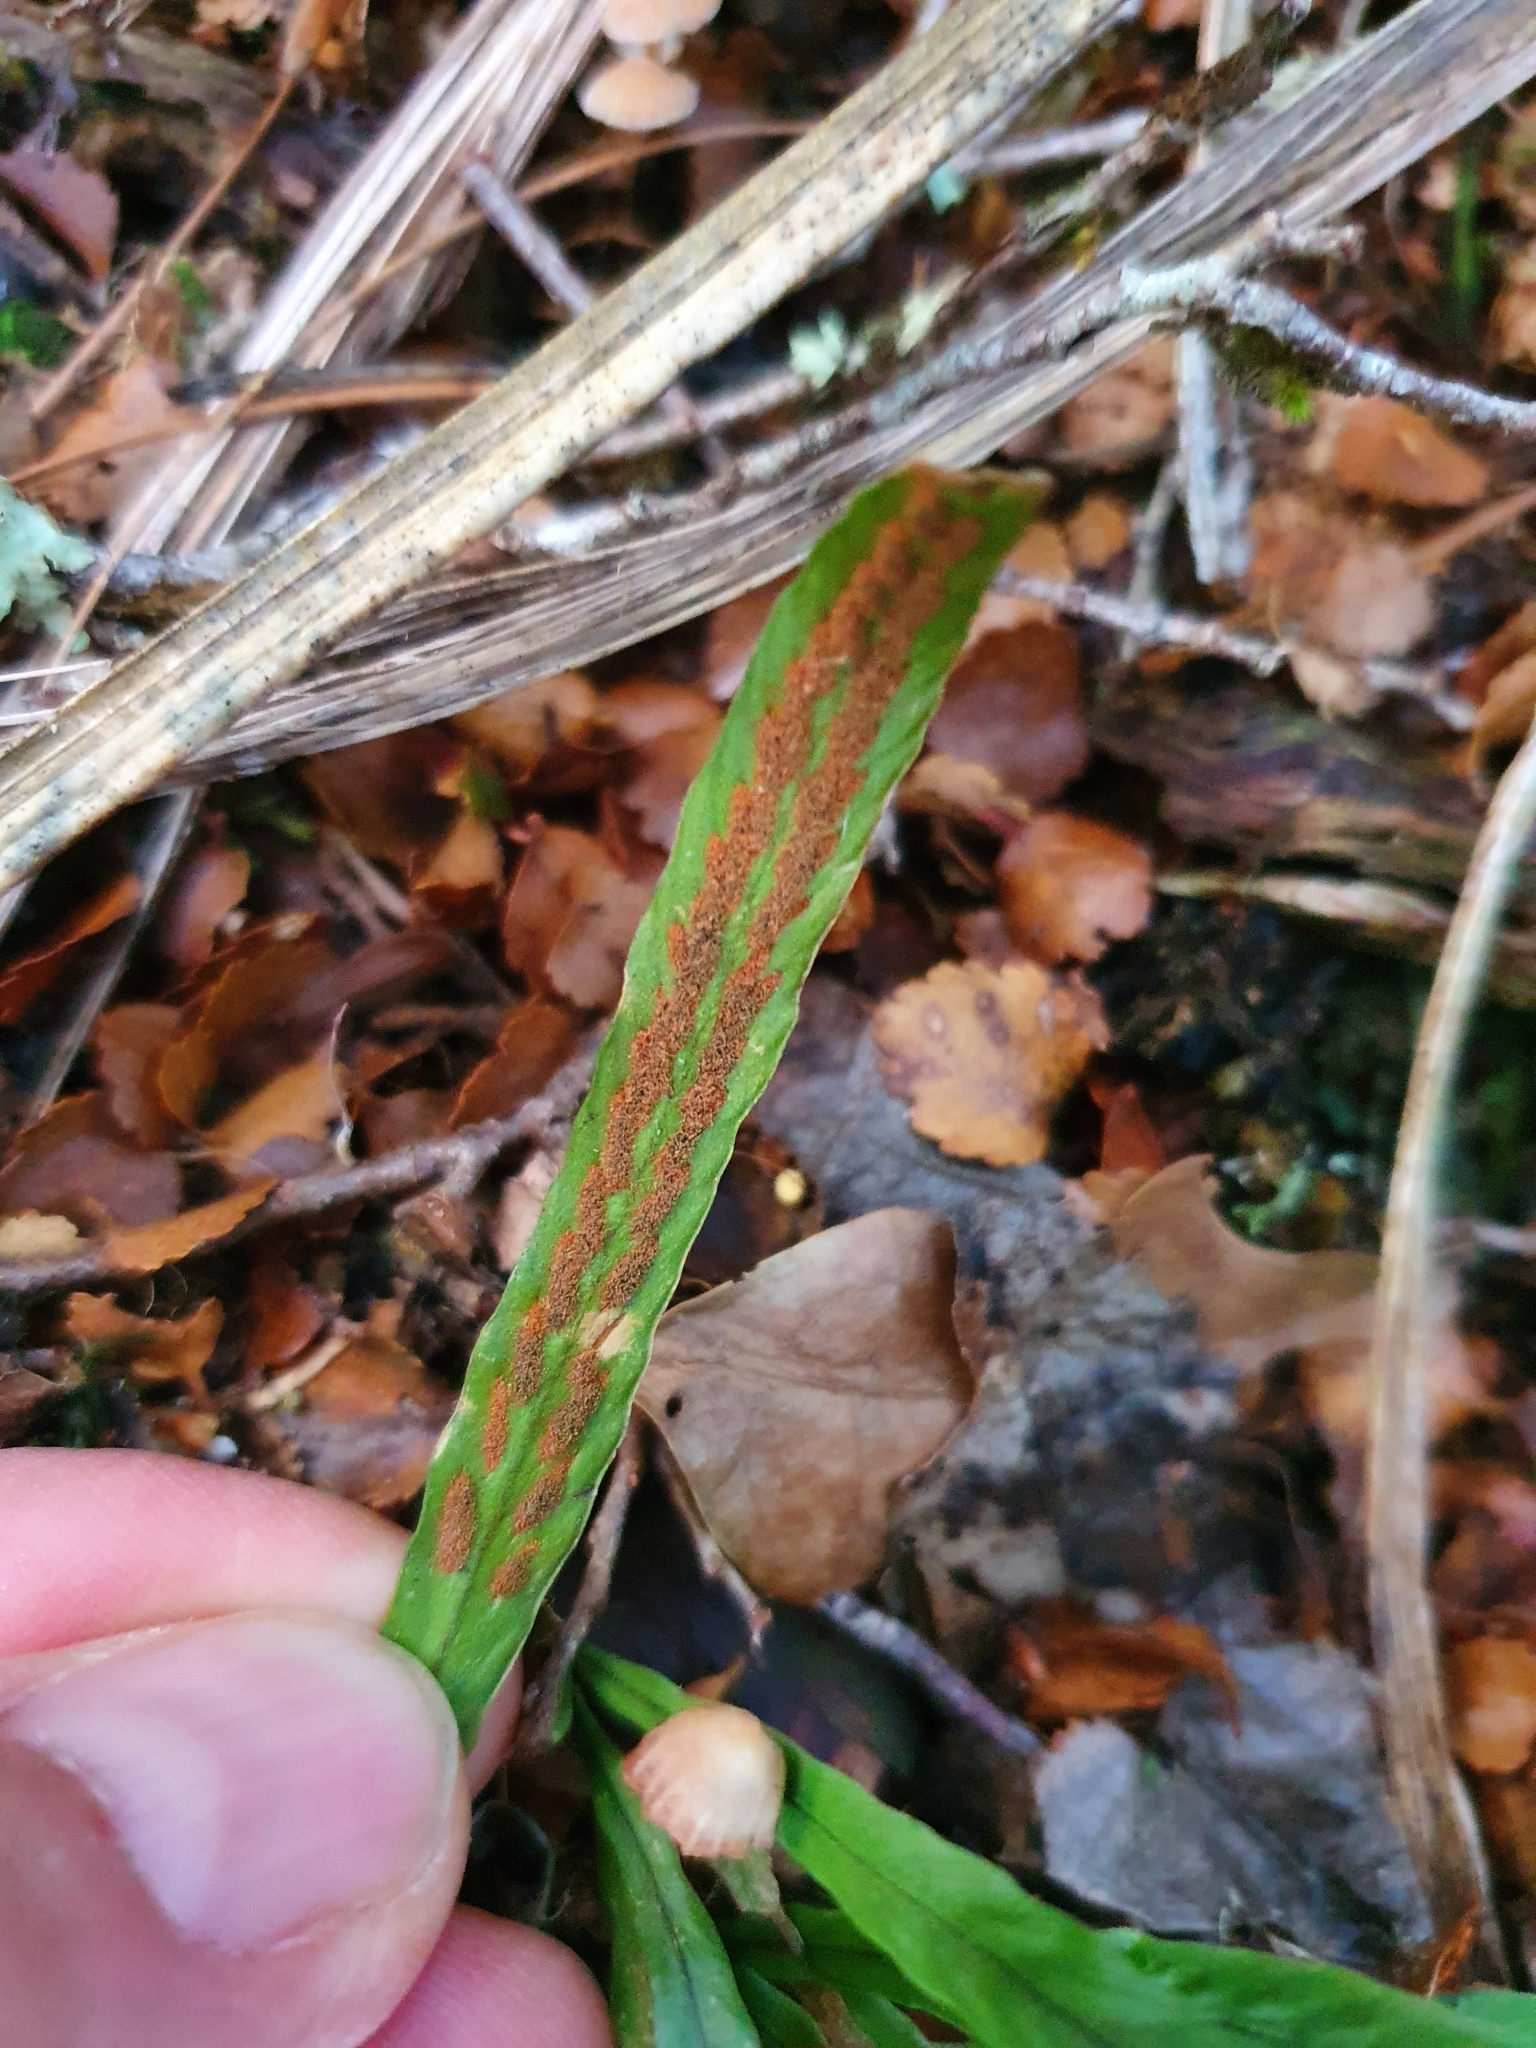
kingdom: Plantae
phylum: Tracheophyta
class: Polypodiopsida
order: Polypodiales
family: Polypodiaceae
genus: Notogrammitis
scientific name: Notogrammitis billardierei
